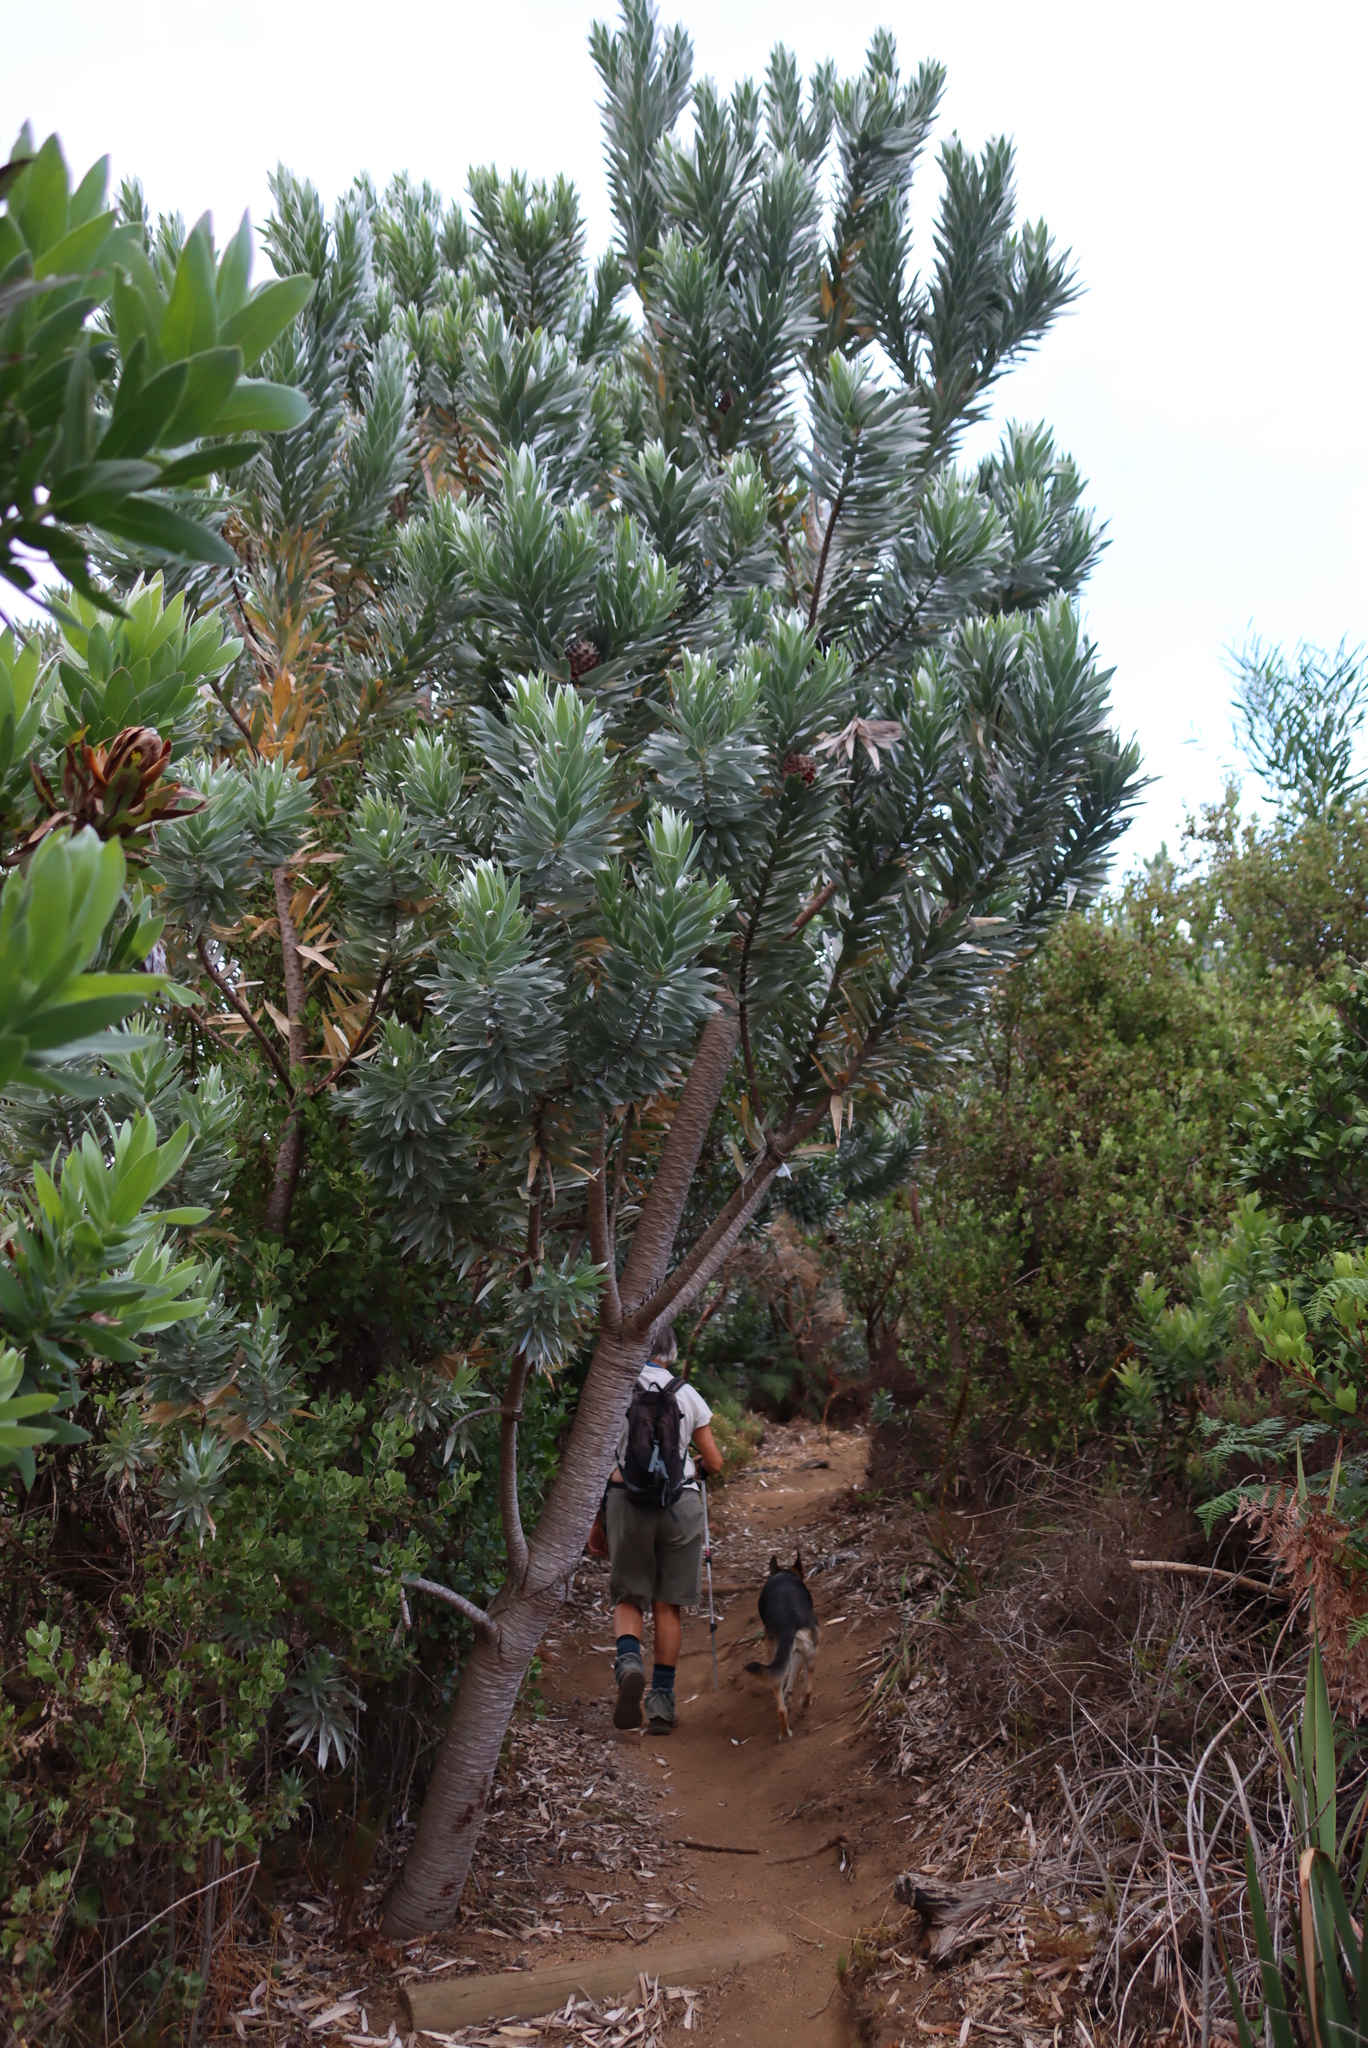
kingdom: Plantae
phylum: Tracheophyta
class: Magnoliopsida
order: Proteales
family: Proteaceae
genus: Leucadendron
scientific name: Leucadendron argenteum
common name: Cape silver tree
